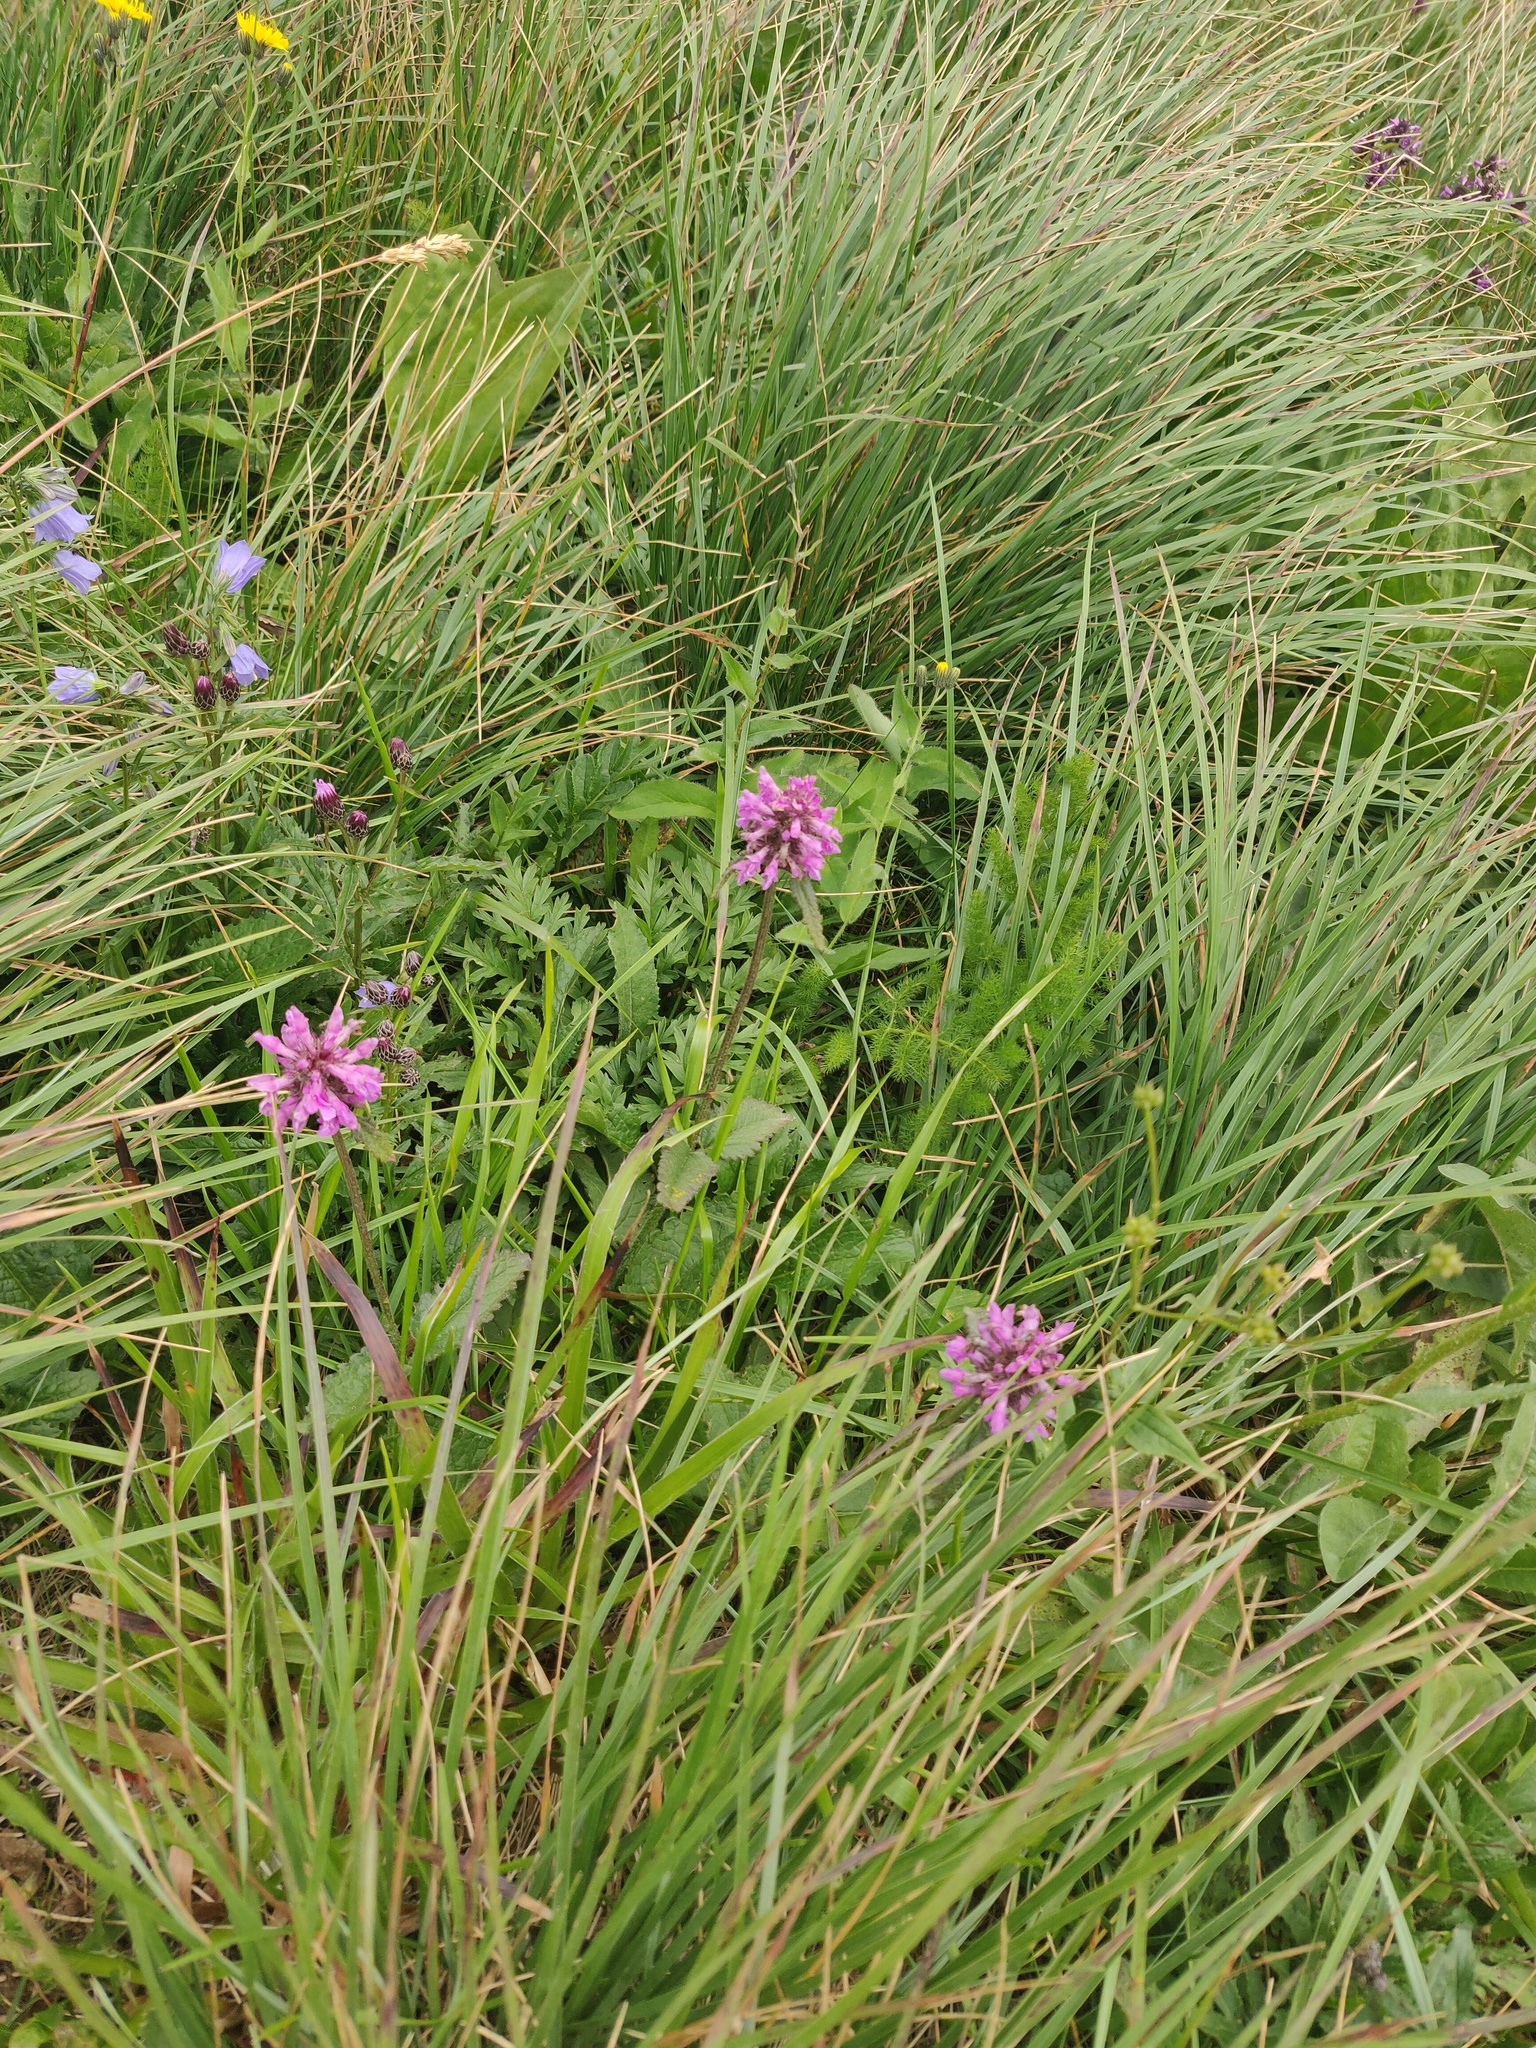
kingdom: Plantae
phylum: Tracheophyta
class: Magnoliopsida
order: Lamiales
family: Lamiaceae
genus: Betonica
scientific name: Betonica officinalis
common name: Bishop's-wort
